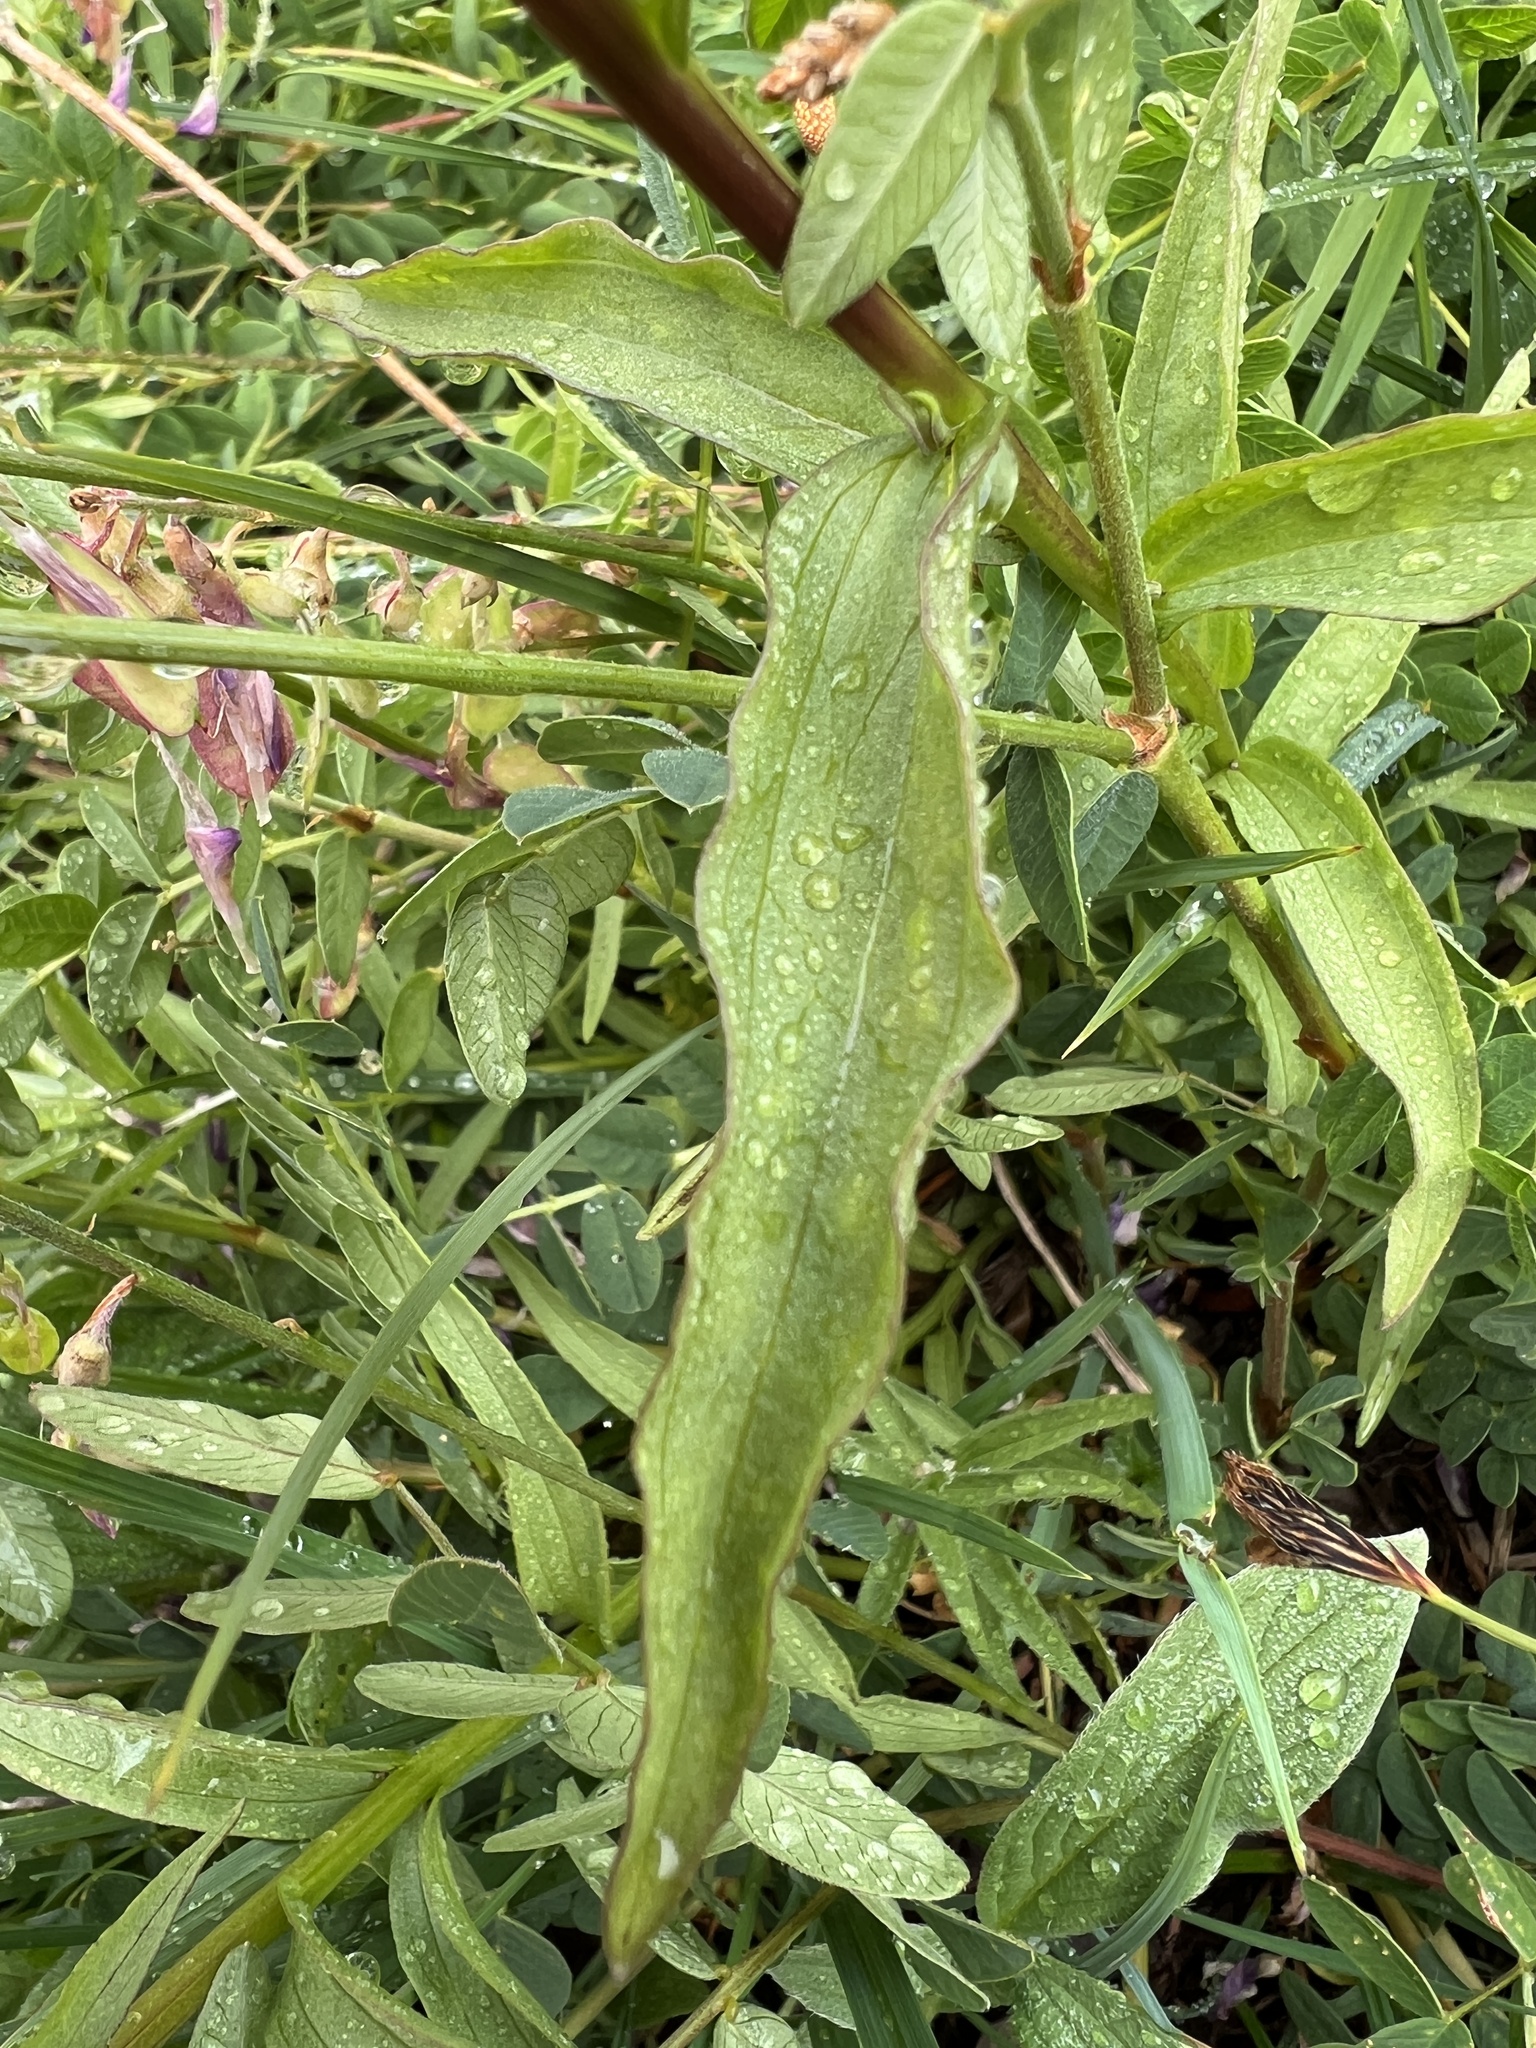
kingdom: Plantae
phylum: Tracheophyta
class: Magnoliopsida
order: Lamiales
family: Orobanchaceae
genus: Castilleja
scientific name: Castilleja miniata
